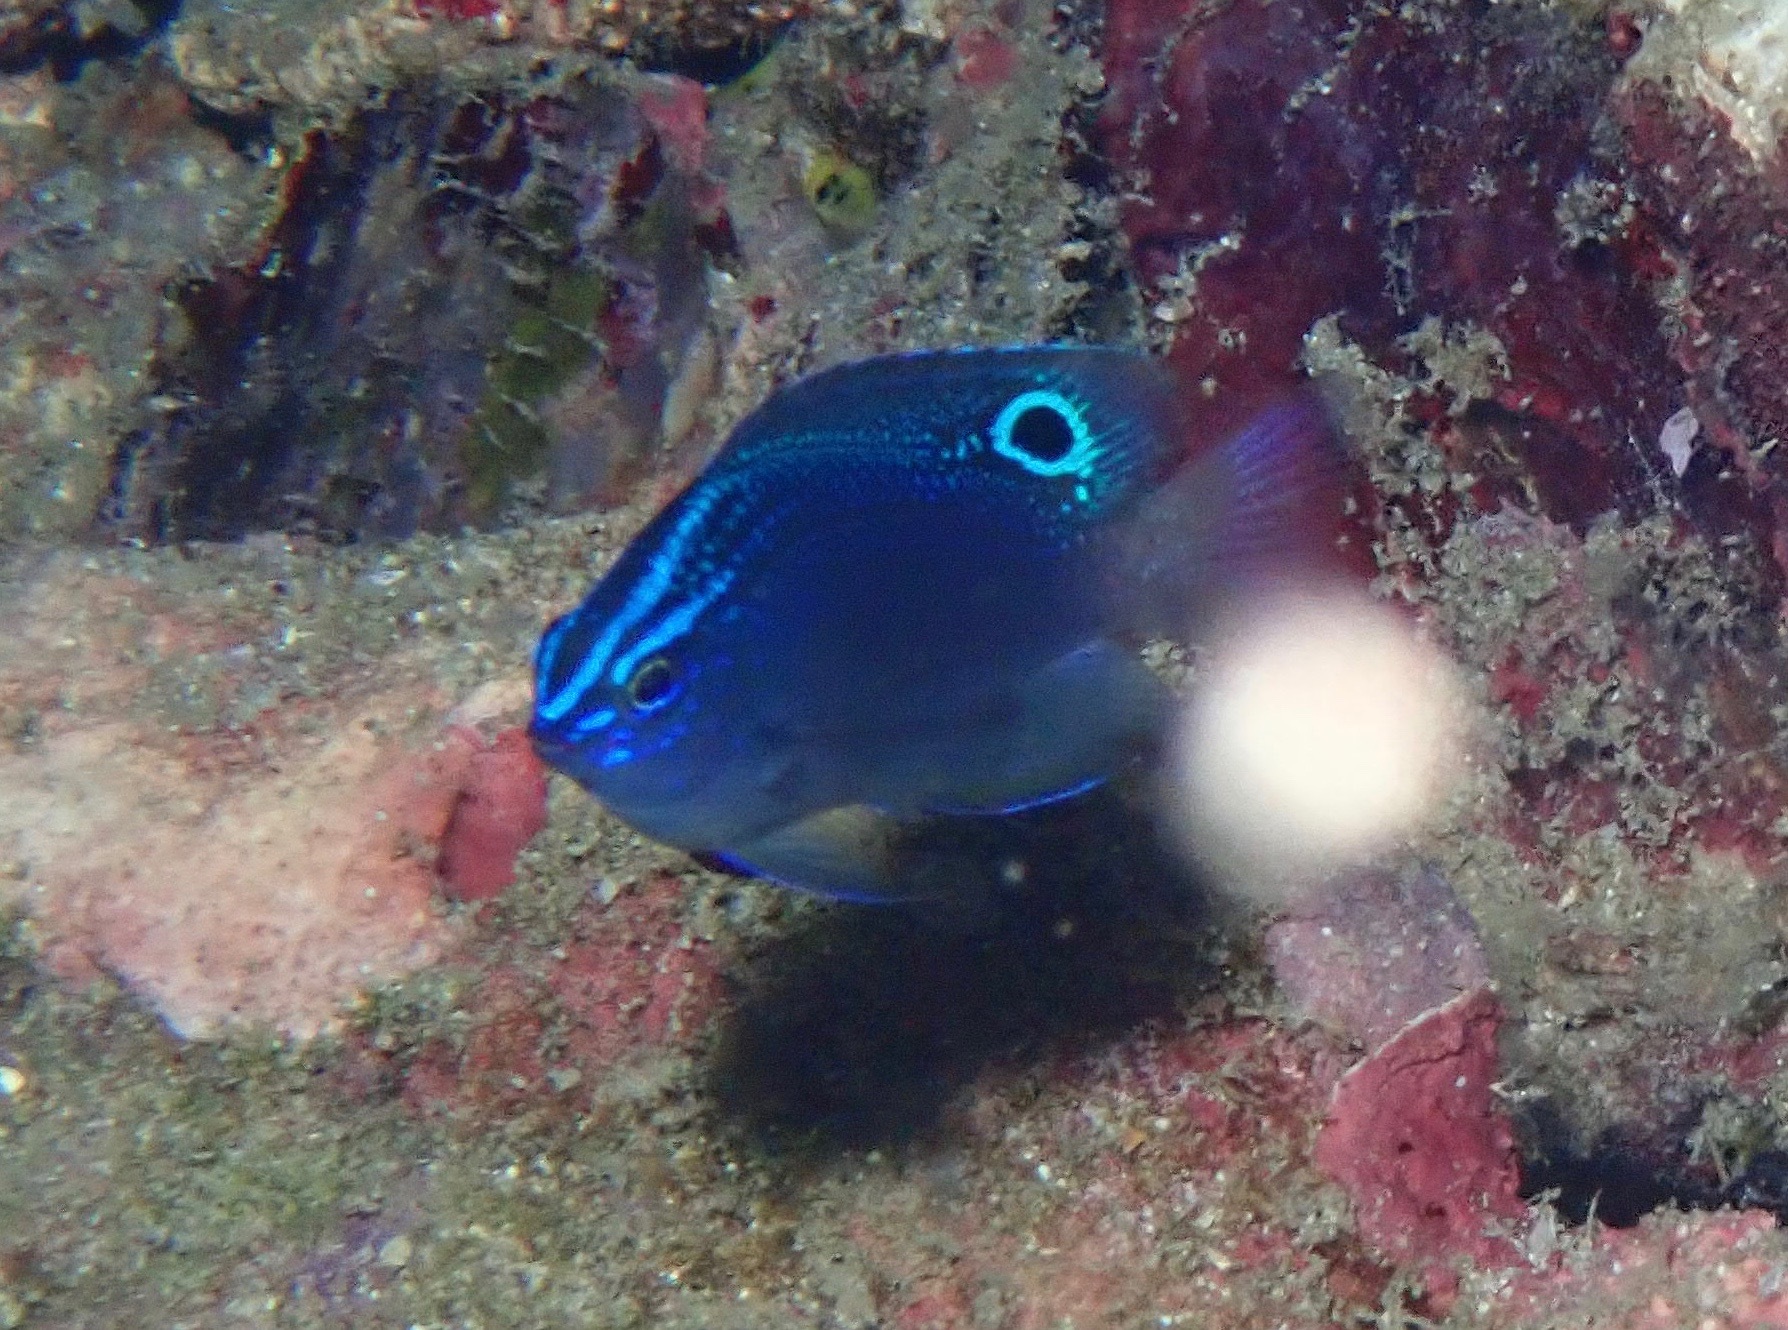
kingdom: Animalia
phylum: Chordata
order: Perciformes
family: Pomacentridae
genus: Pomacentrus
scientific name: Pomacentrus polyspinus
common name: Thai damsel
